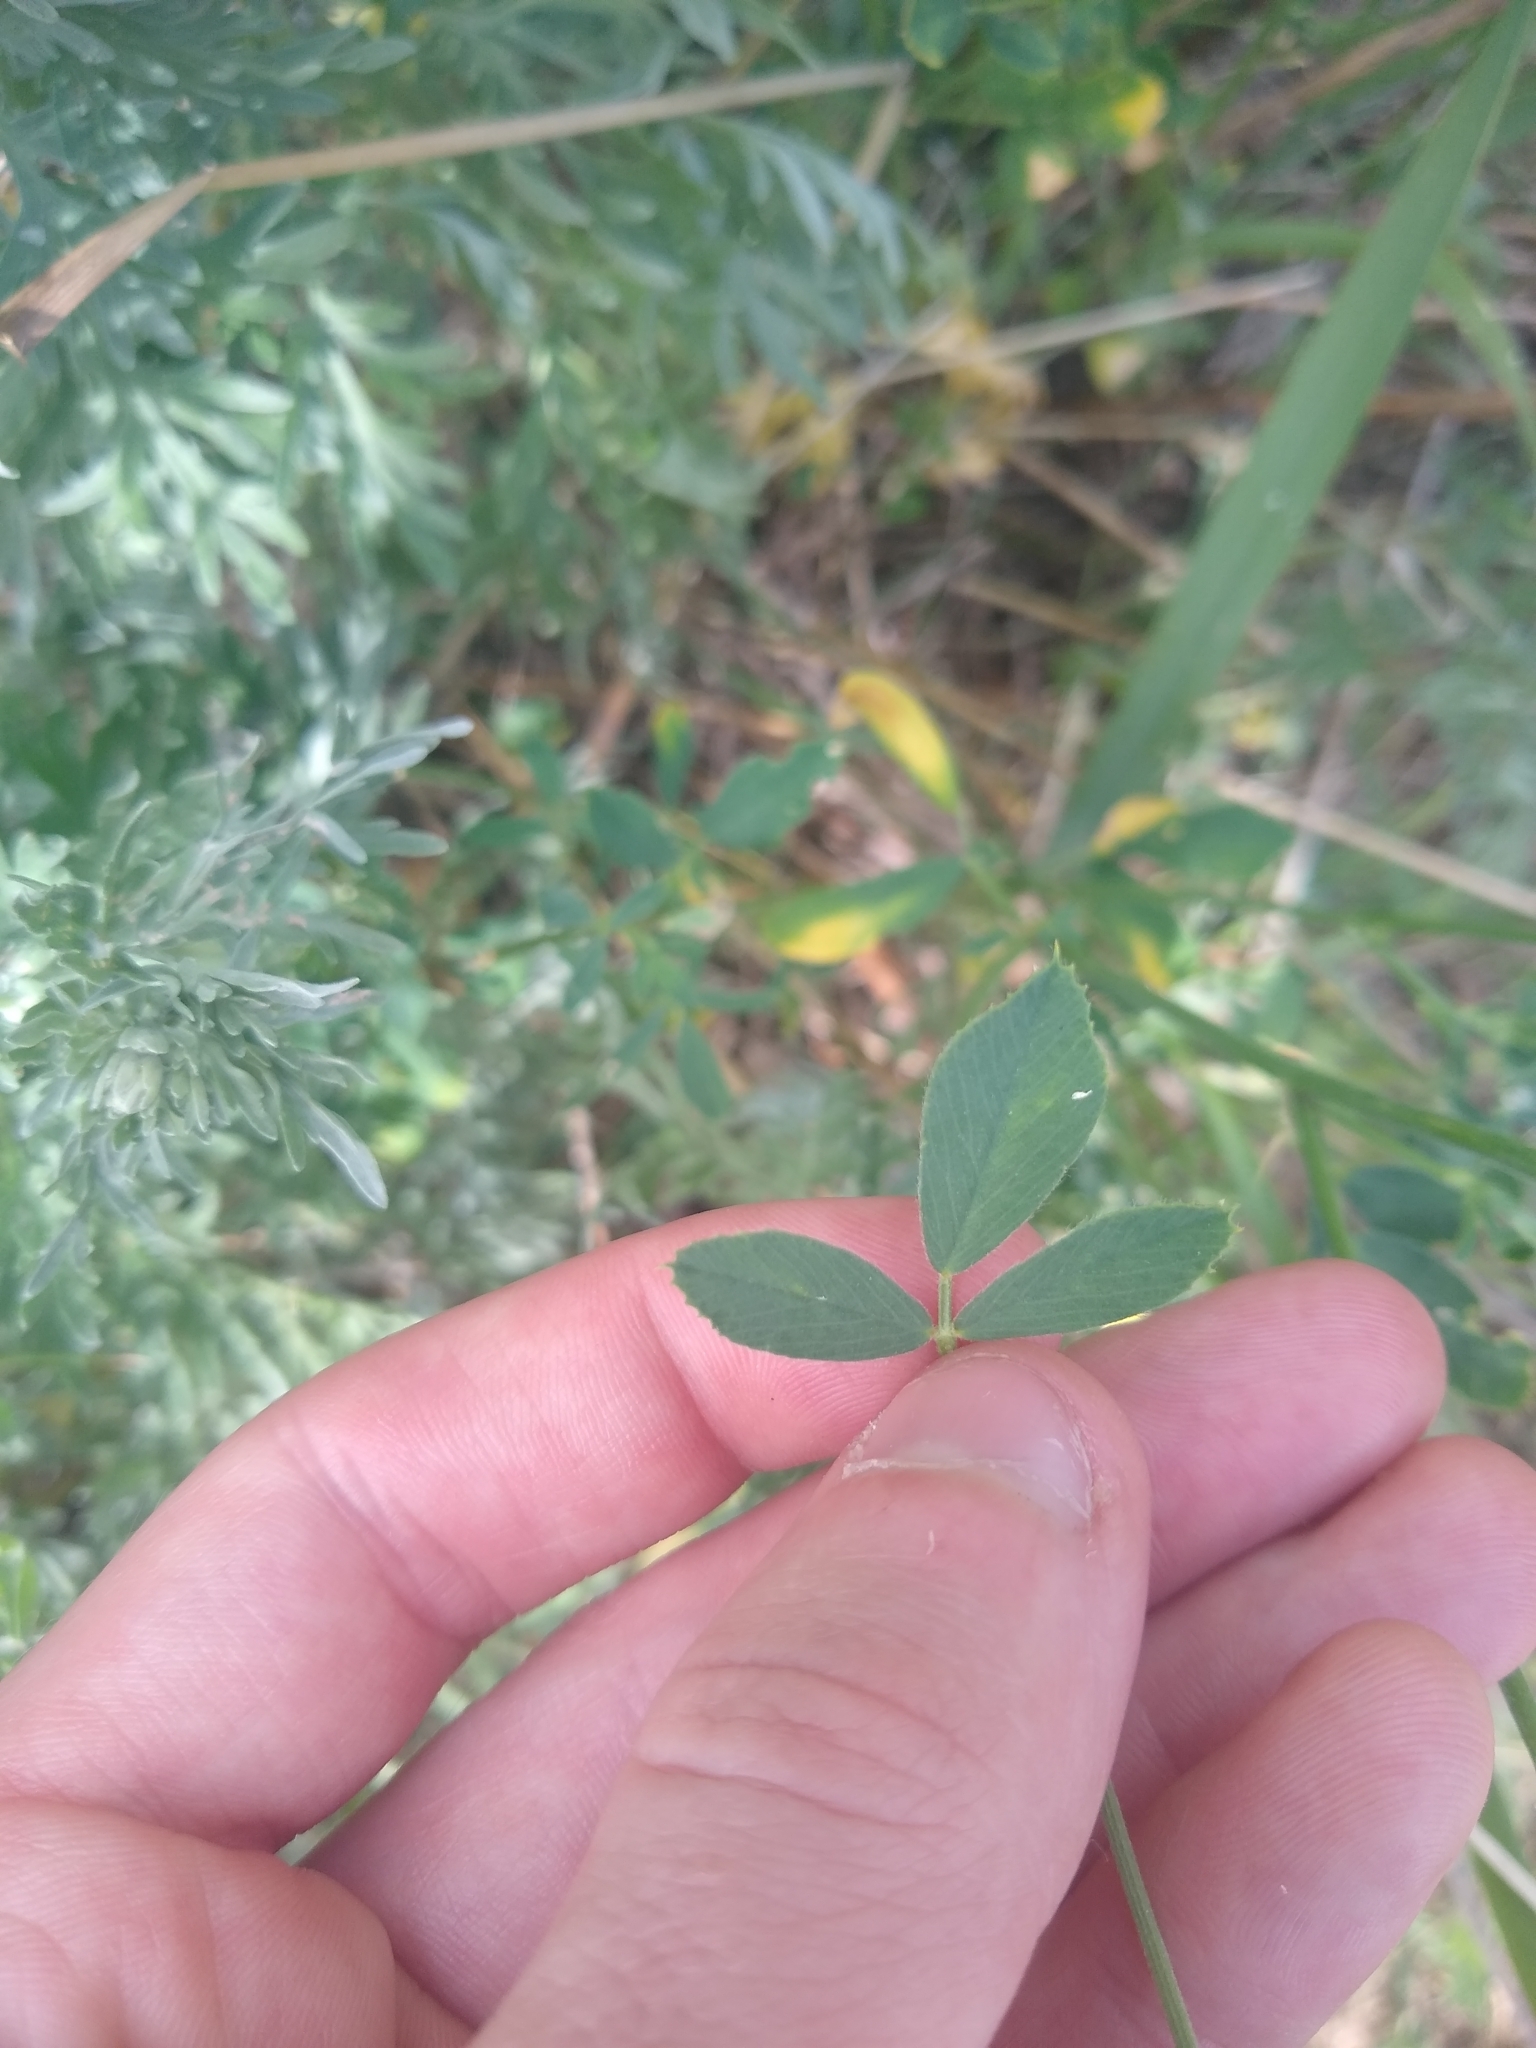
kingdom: Plantae
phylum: Tracheophyta
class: Magnoliopsida
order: Fabales
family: Fabaceae
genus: Medicago
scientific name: Medicago sativa
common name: Alfalfa
